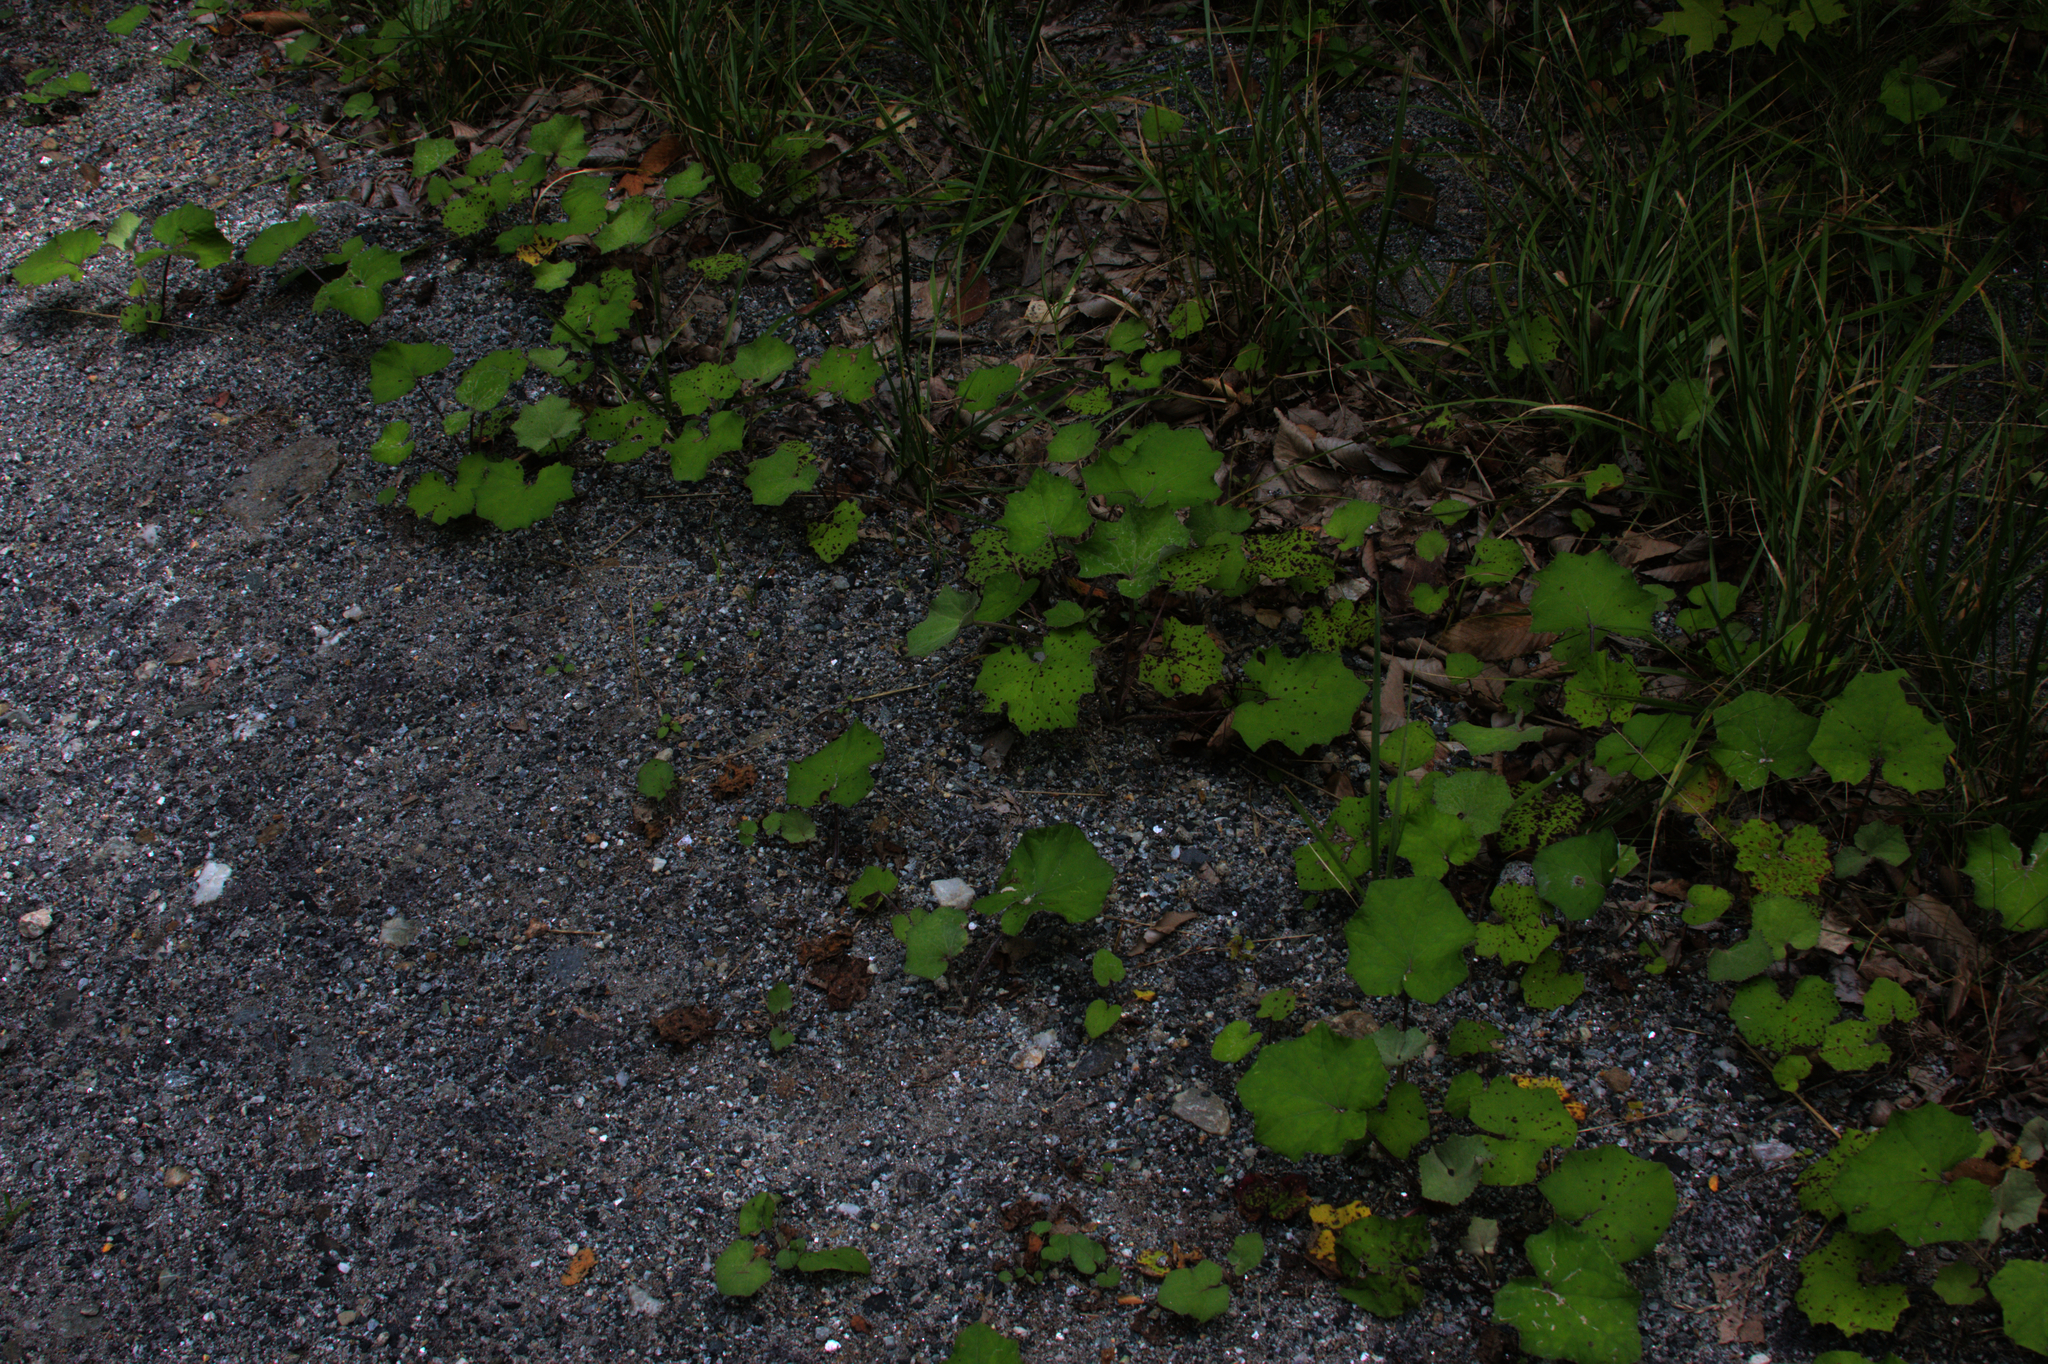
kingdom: Plantae
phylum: Tracheophyta
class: Magnoliopsida
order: Asterales
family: Asteraceae
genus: Tussilago
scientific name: Tussilago farfara
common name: Coltsfoot
